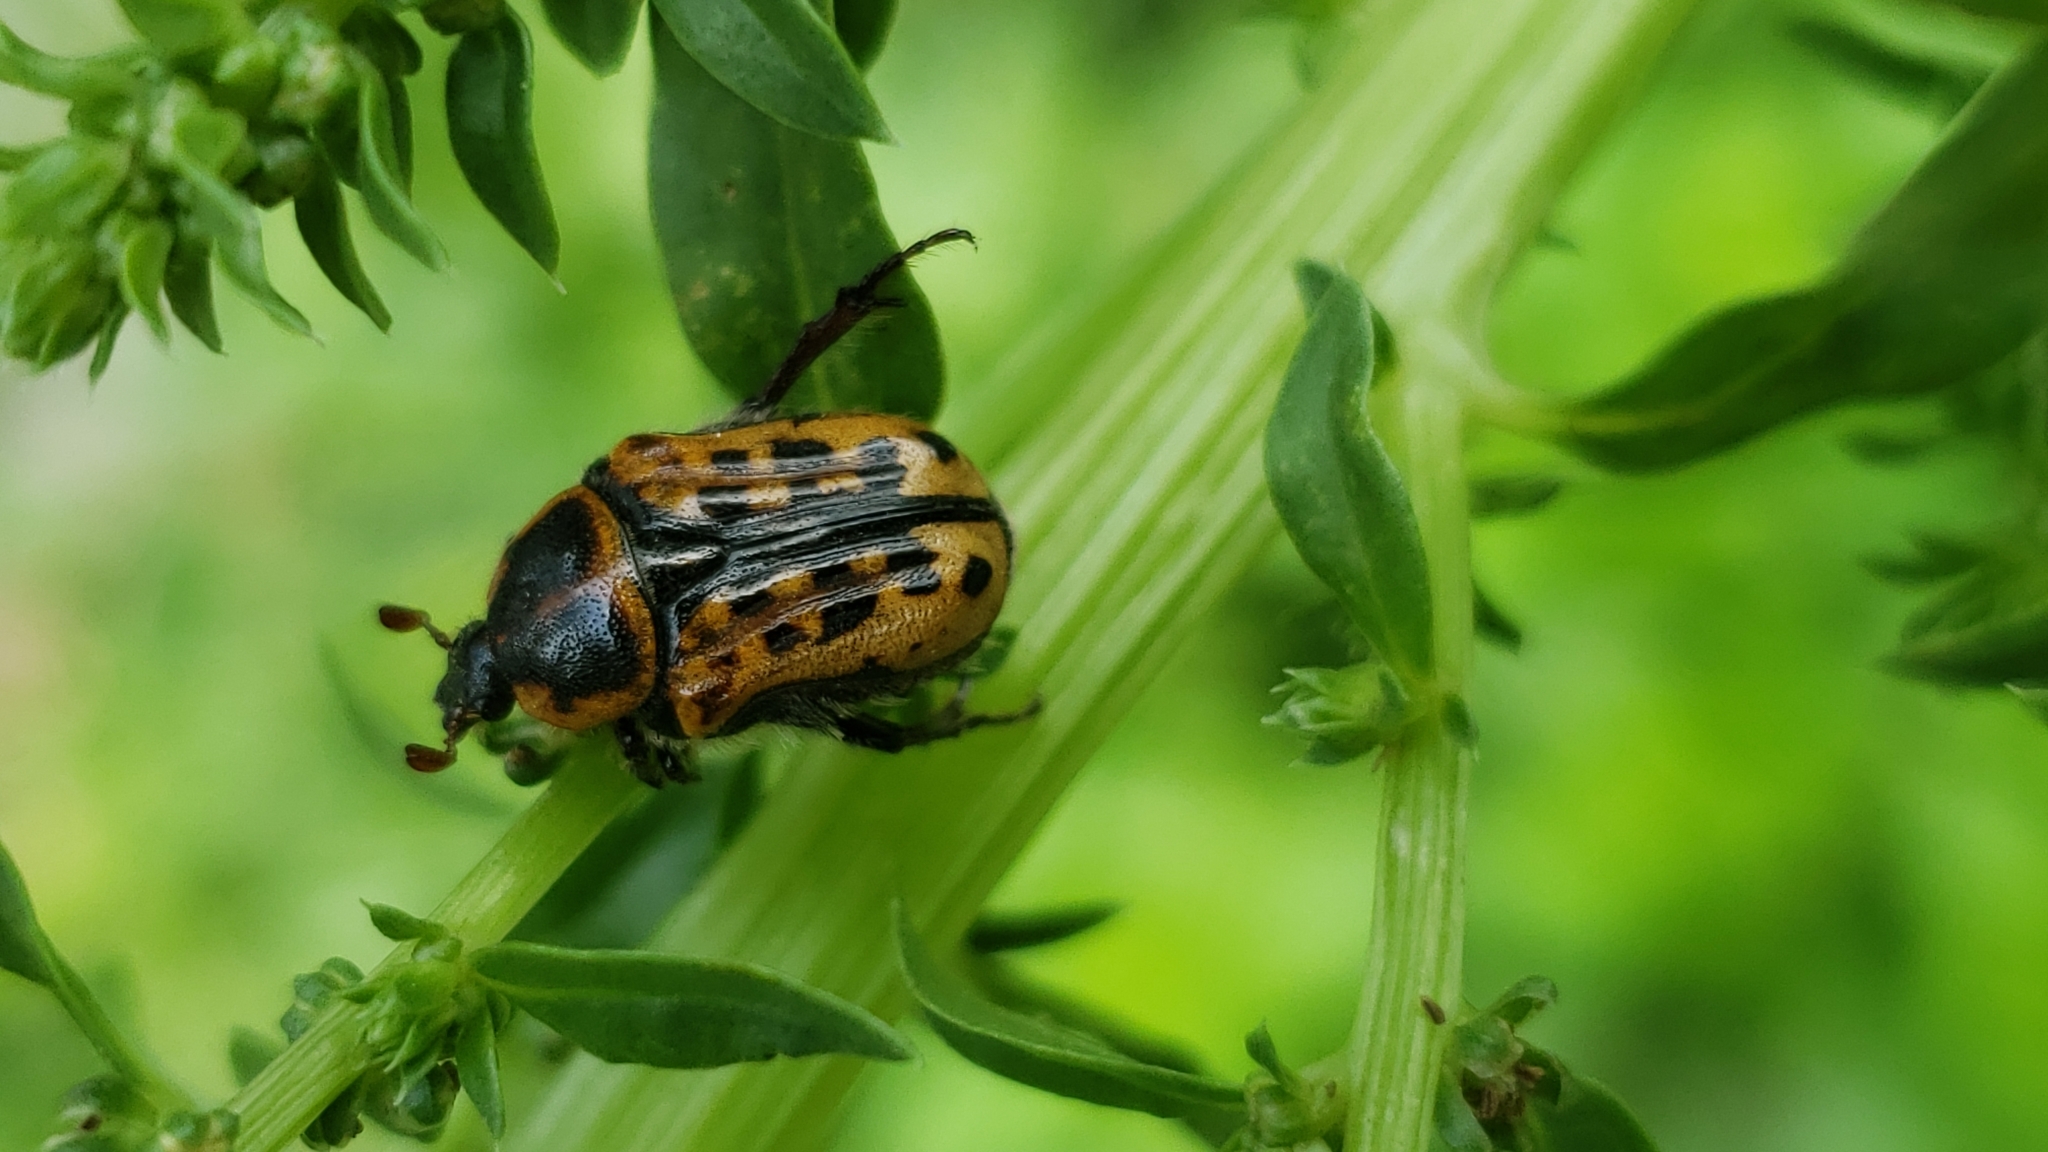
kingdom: Animalia
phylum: Arthropoda
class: Insecta
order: Coleoptera
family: Scarabaeidae
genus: Euphoria
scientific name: Euphoria kernii
